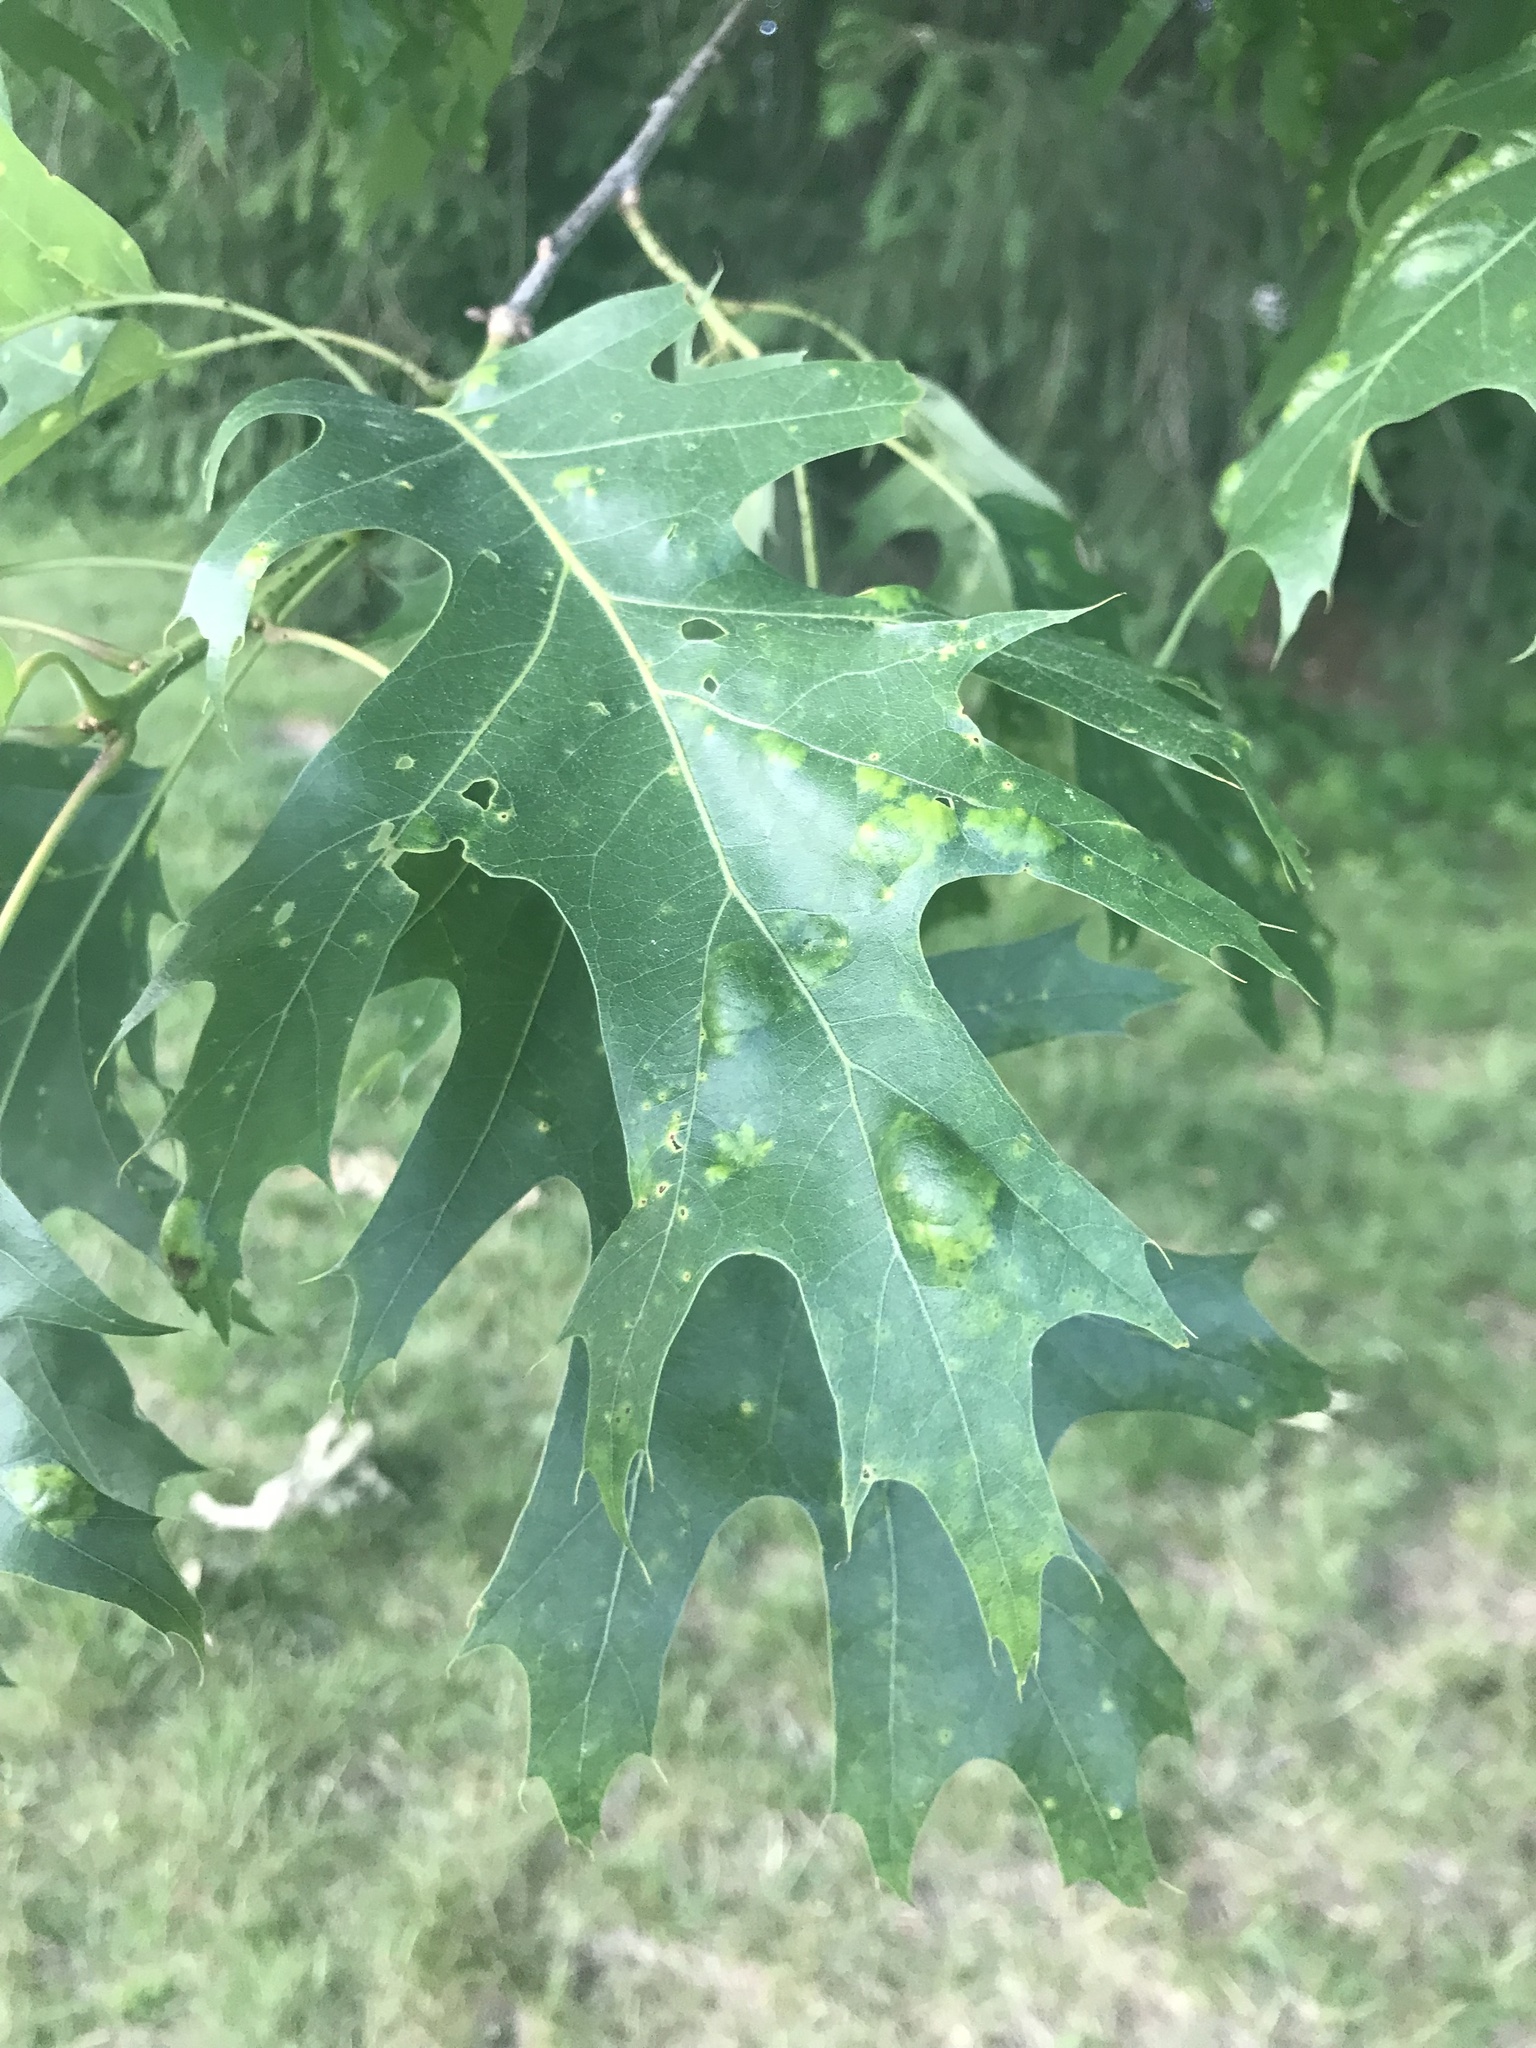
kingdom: Fungi
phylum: Ascomycota
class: Taphrinomycetes
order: Taphrinales
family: Taphrinaceae
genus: Taphrina
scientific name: Taphrina caerulescens
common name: Oak leaf blister
